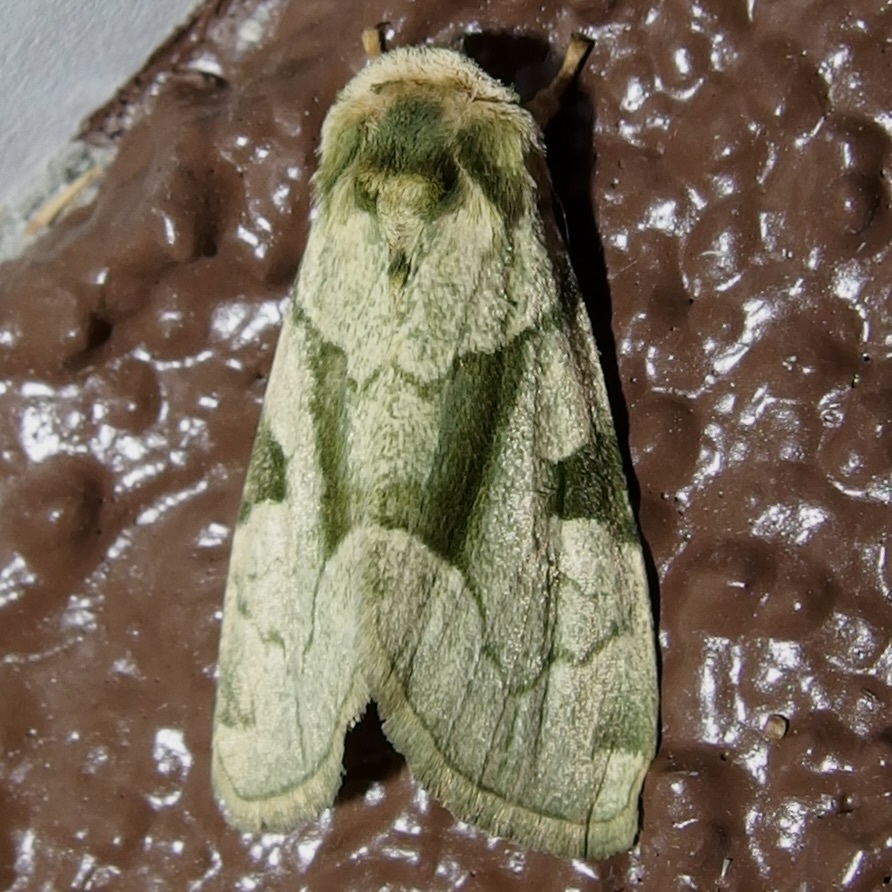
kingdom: Animalia
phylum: Arthropoda
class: Insecta
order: Lepidoptera
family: Noctuidae
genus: Oslaria
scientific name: Oslaria viridifera
